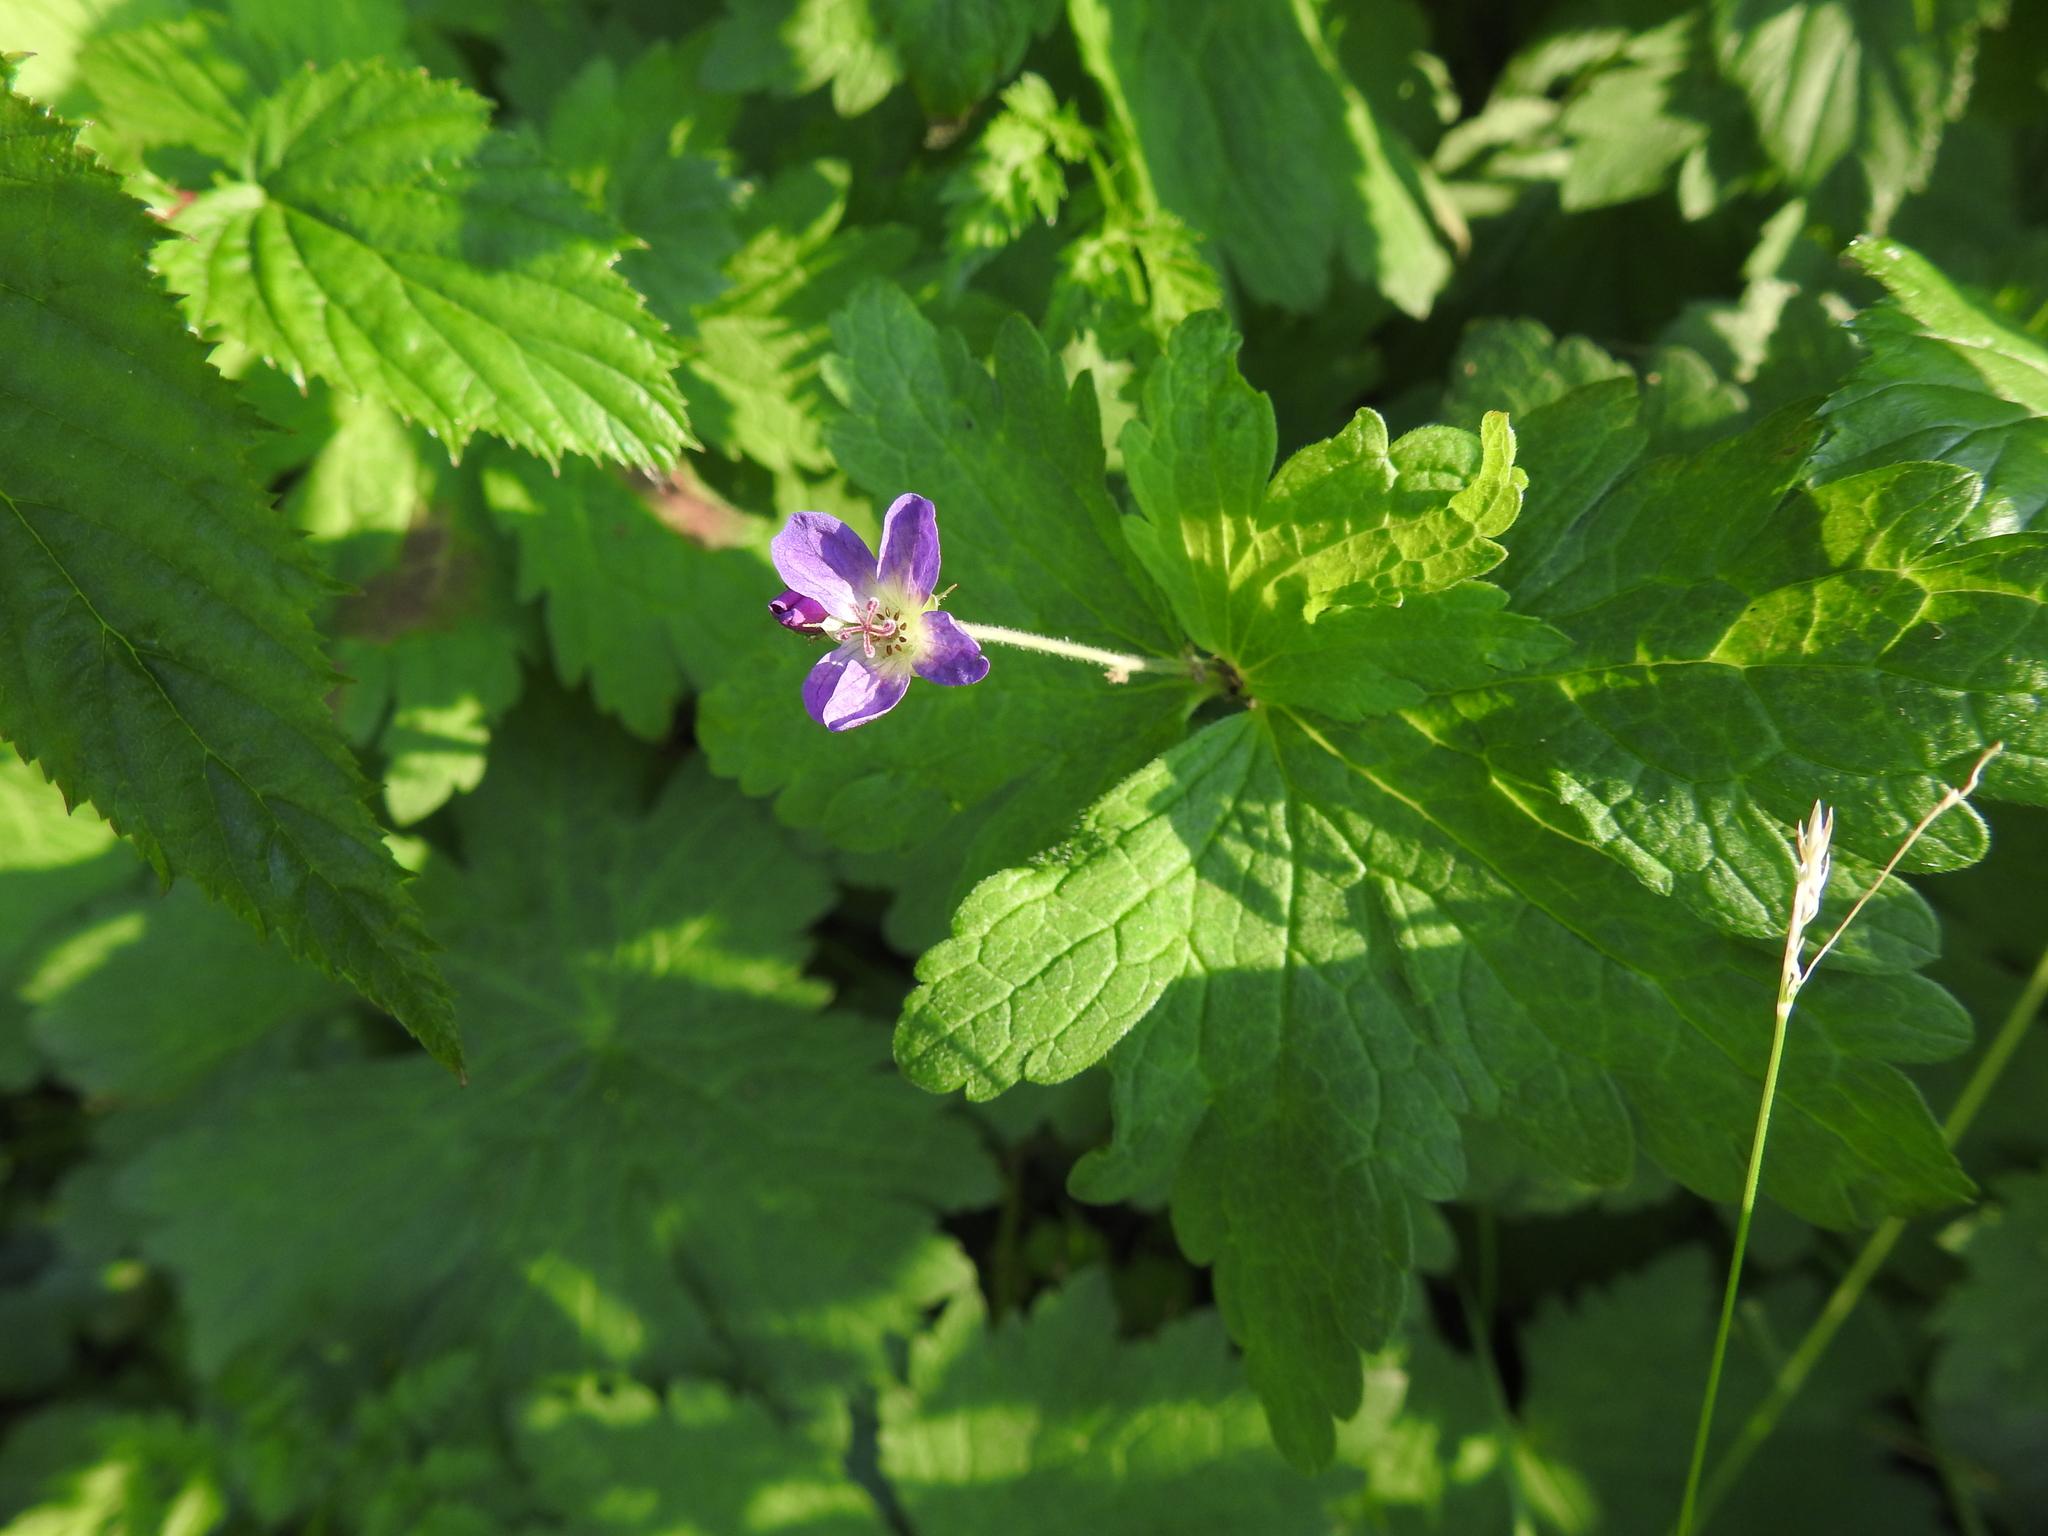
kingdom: Plantae
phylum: Tracheophyta
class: Magnoliopsida
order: Geraniales
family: Geraniaceae
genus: Geranium
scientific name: Geranium sylvaticum
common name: Wood crane's-bill
